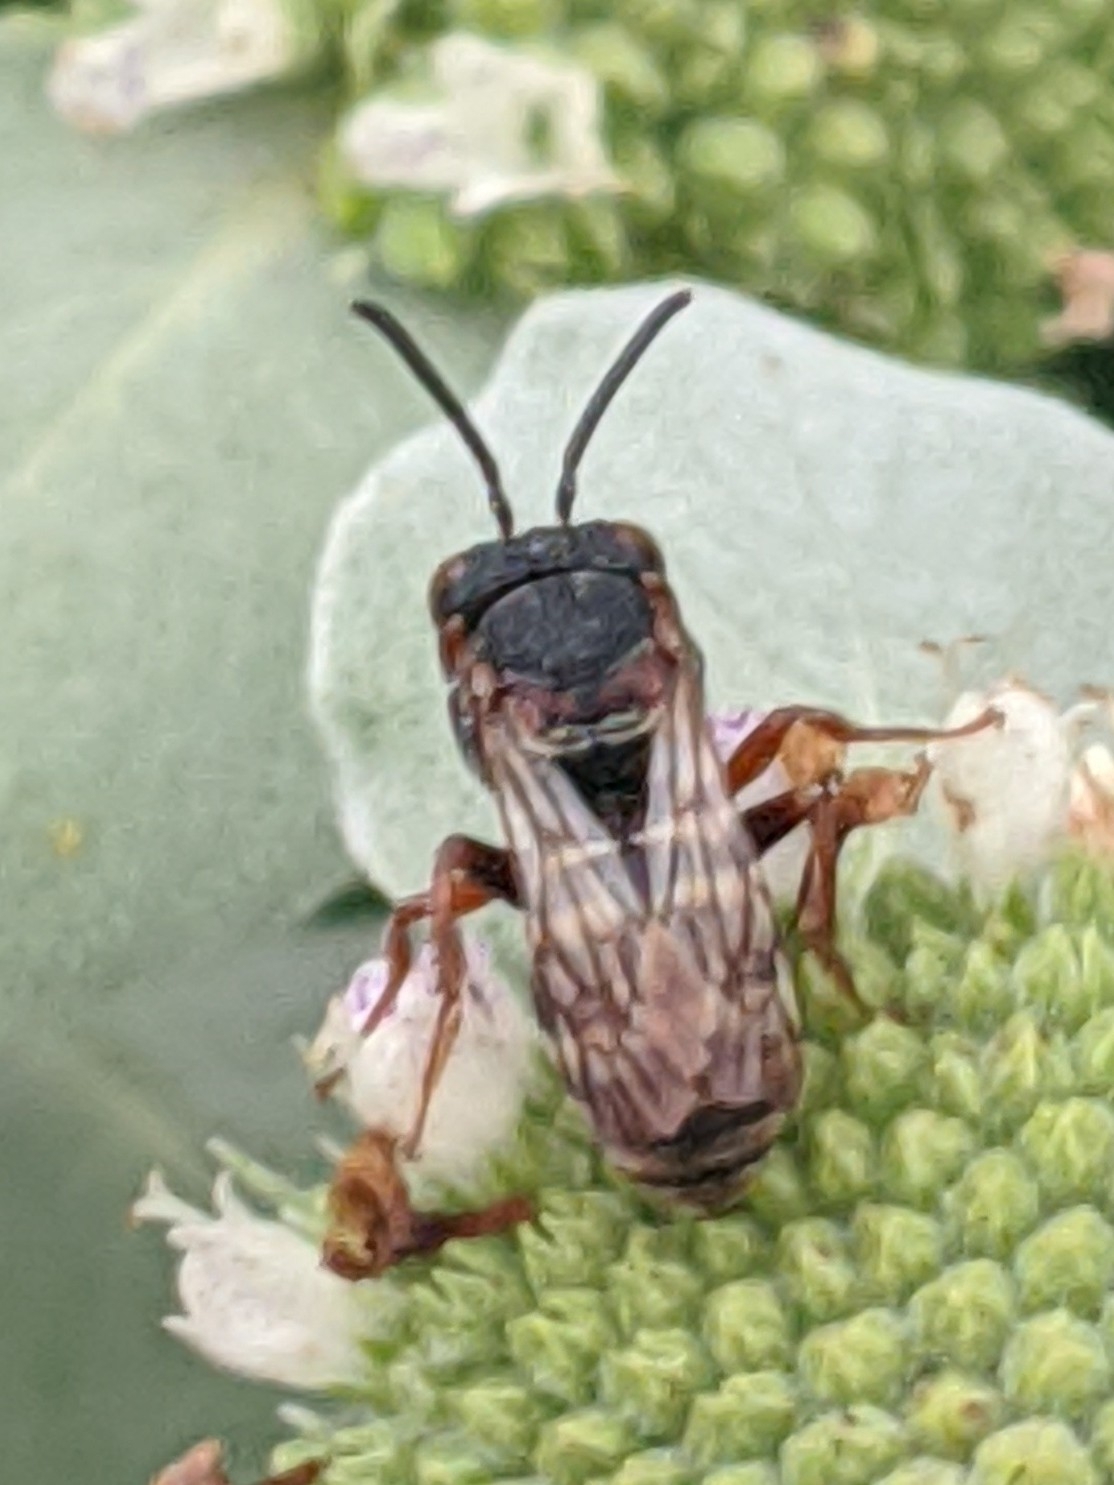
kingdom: Animalia
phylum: Arthropoda
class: Insecta
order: Hymenoptera
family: Apidae
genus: Epeolus
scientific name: Epeolus scutellaris
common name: Notch-backed cellophane-cuckoo bee
